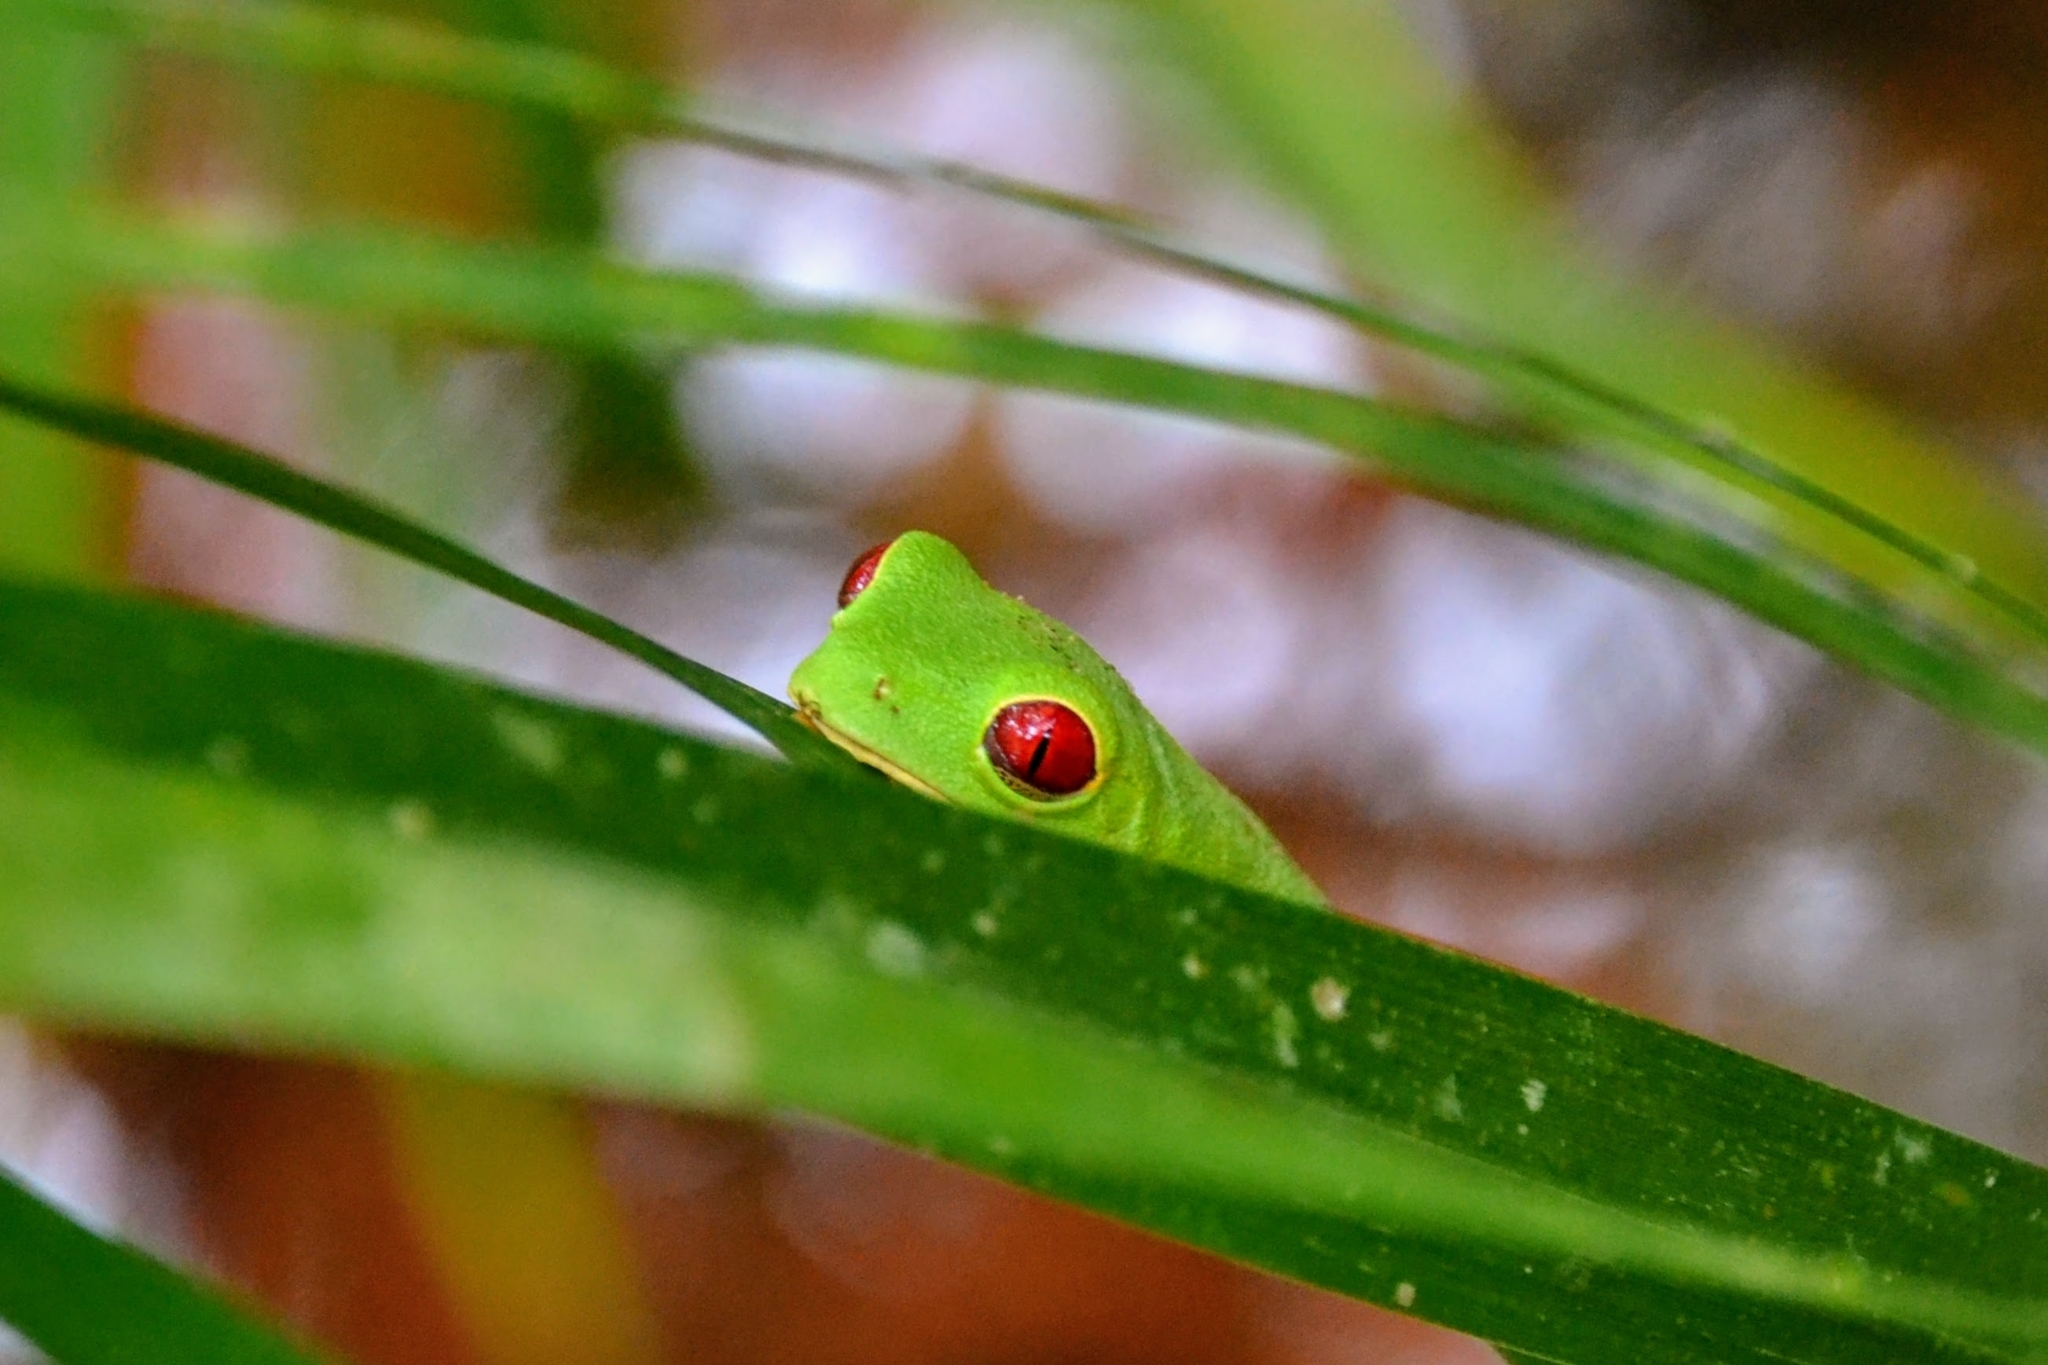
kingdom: Animalia
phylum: Chordata
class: Amphibia
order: Anura
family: Phyllomedusidae
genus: Agalychnis
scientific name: Agalychnis callidryas
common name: Red-eyed treefrog
